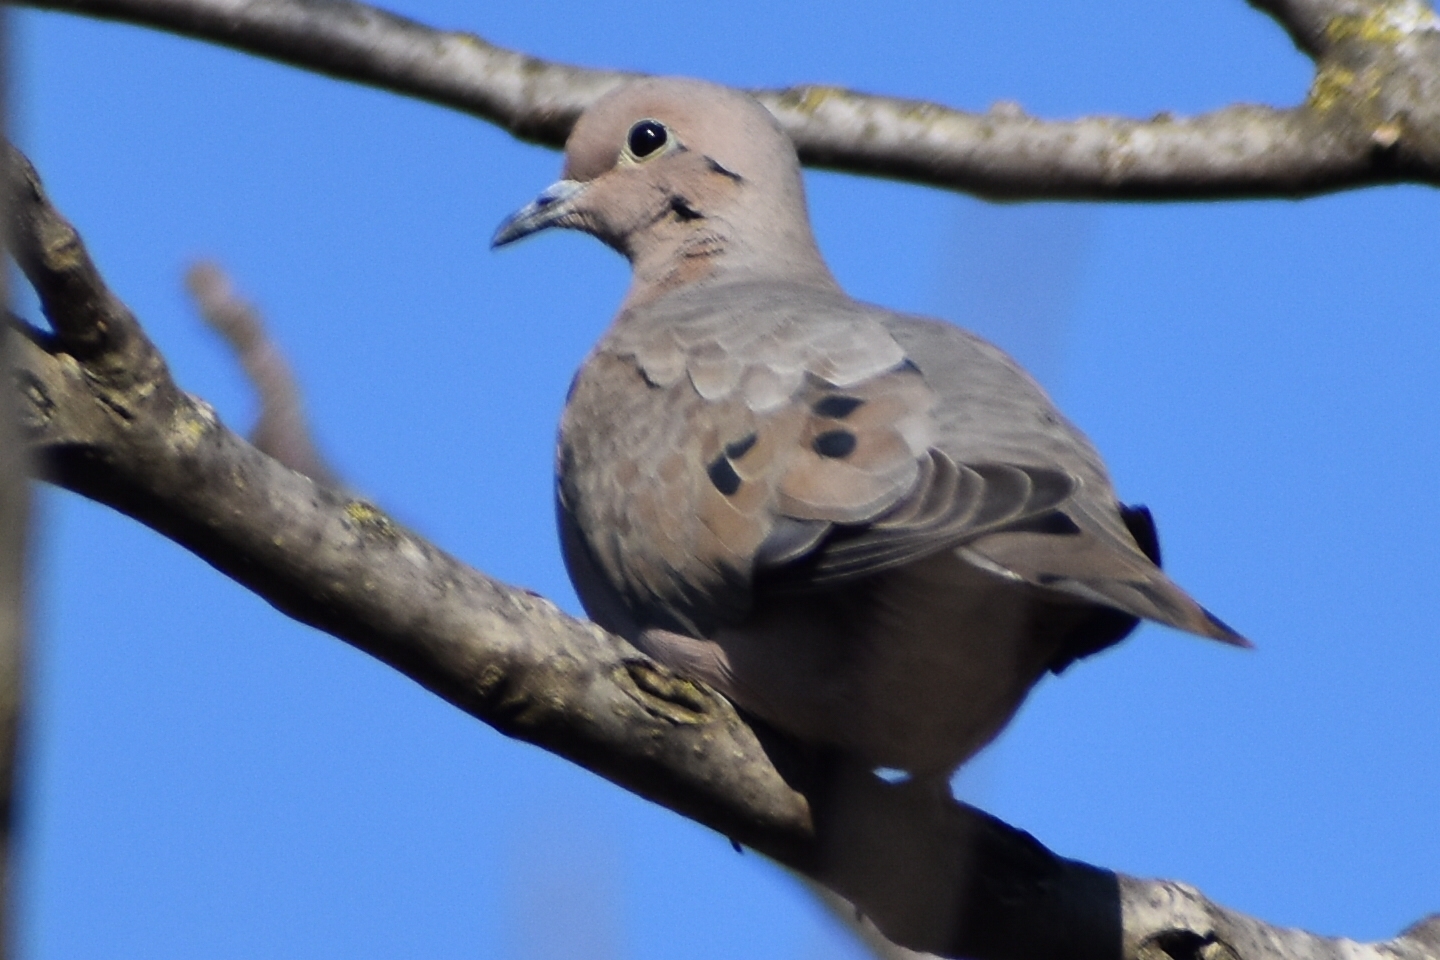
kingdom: Animalia
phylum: Chordata
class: Aves
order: Columbiformes
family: Columbidae
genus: Zenaida
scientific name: Zenaida auriculata
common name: Eared dove
